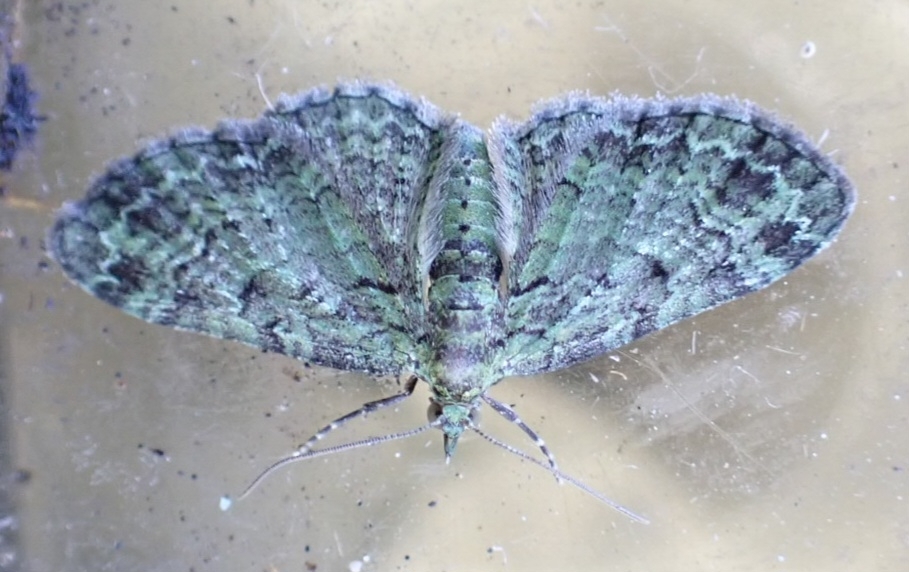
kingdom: Animalia
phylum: Arthropoda
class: Insecta
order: Lepidoptera
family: Geometridae
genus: Pasiphila
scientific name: Pasiphila rectangulata
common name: Green pug
